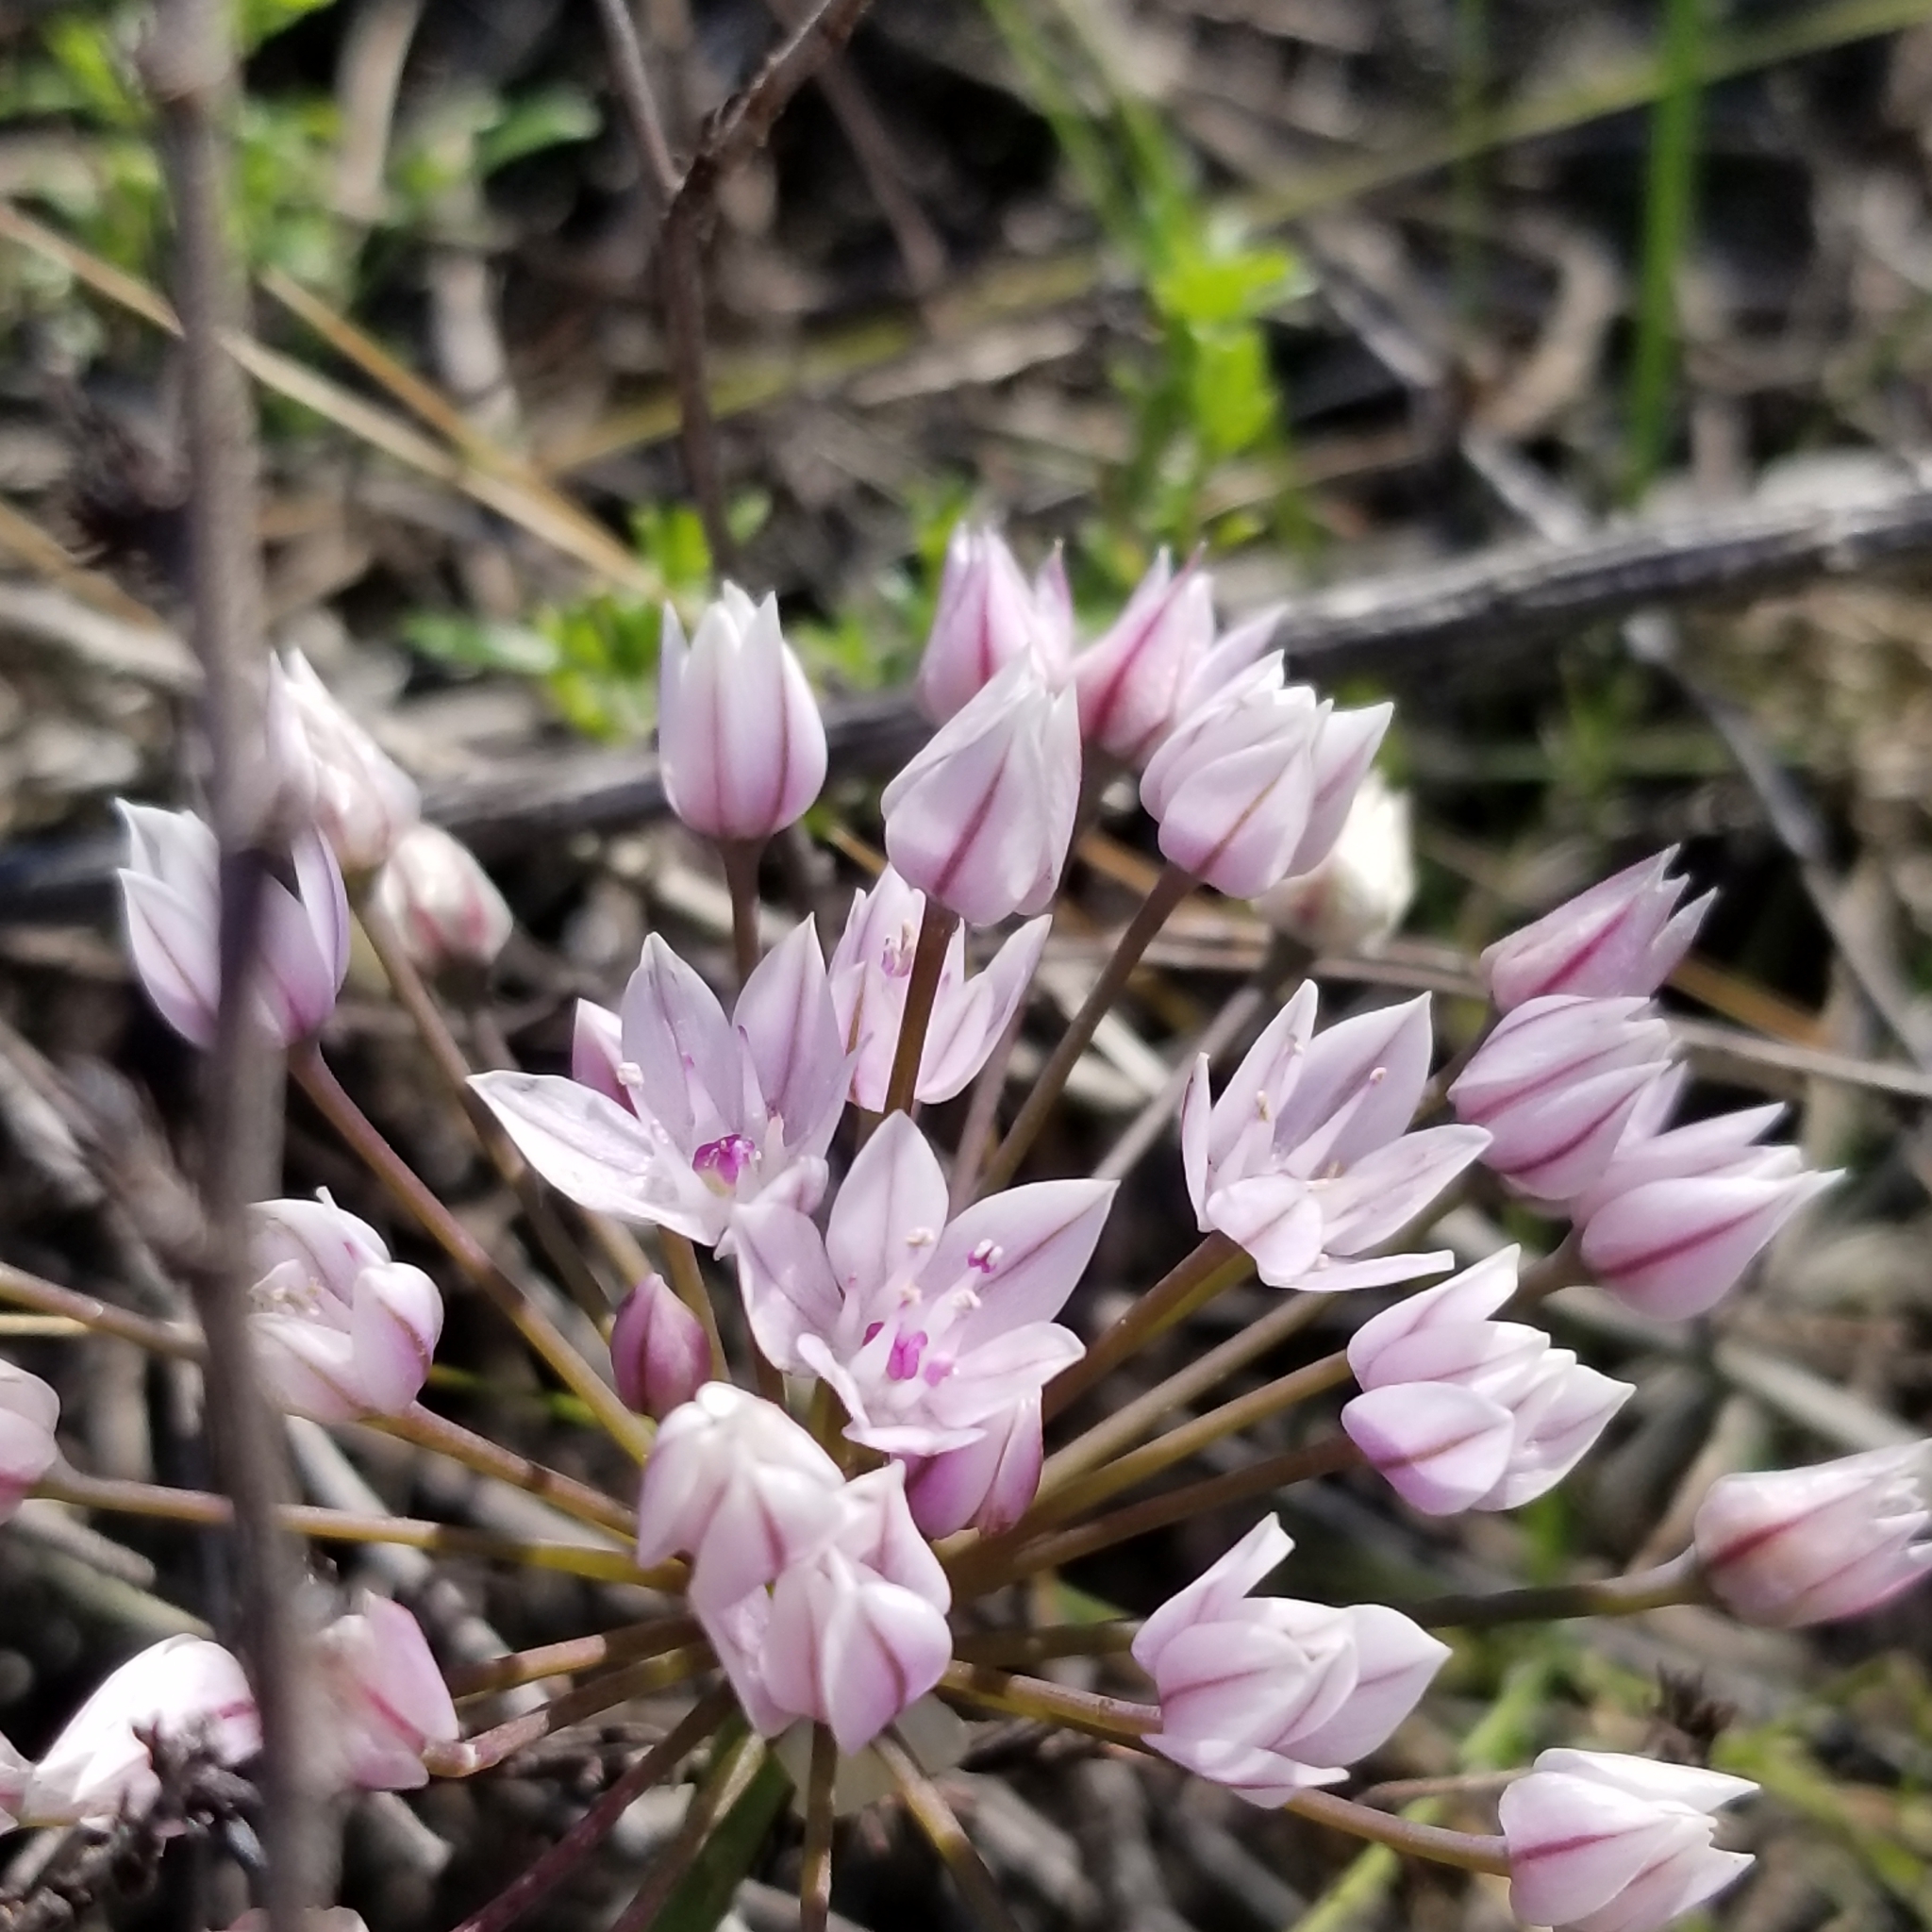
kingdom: Plantae
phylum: Tracheophyta
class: Liliopsida
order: Asparagales
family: Amaryllidaceae
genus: Allium
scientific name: Allium praecox
